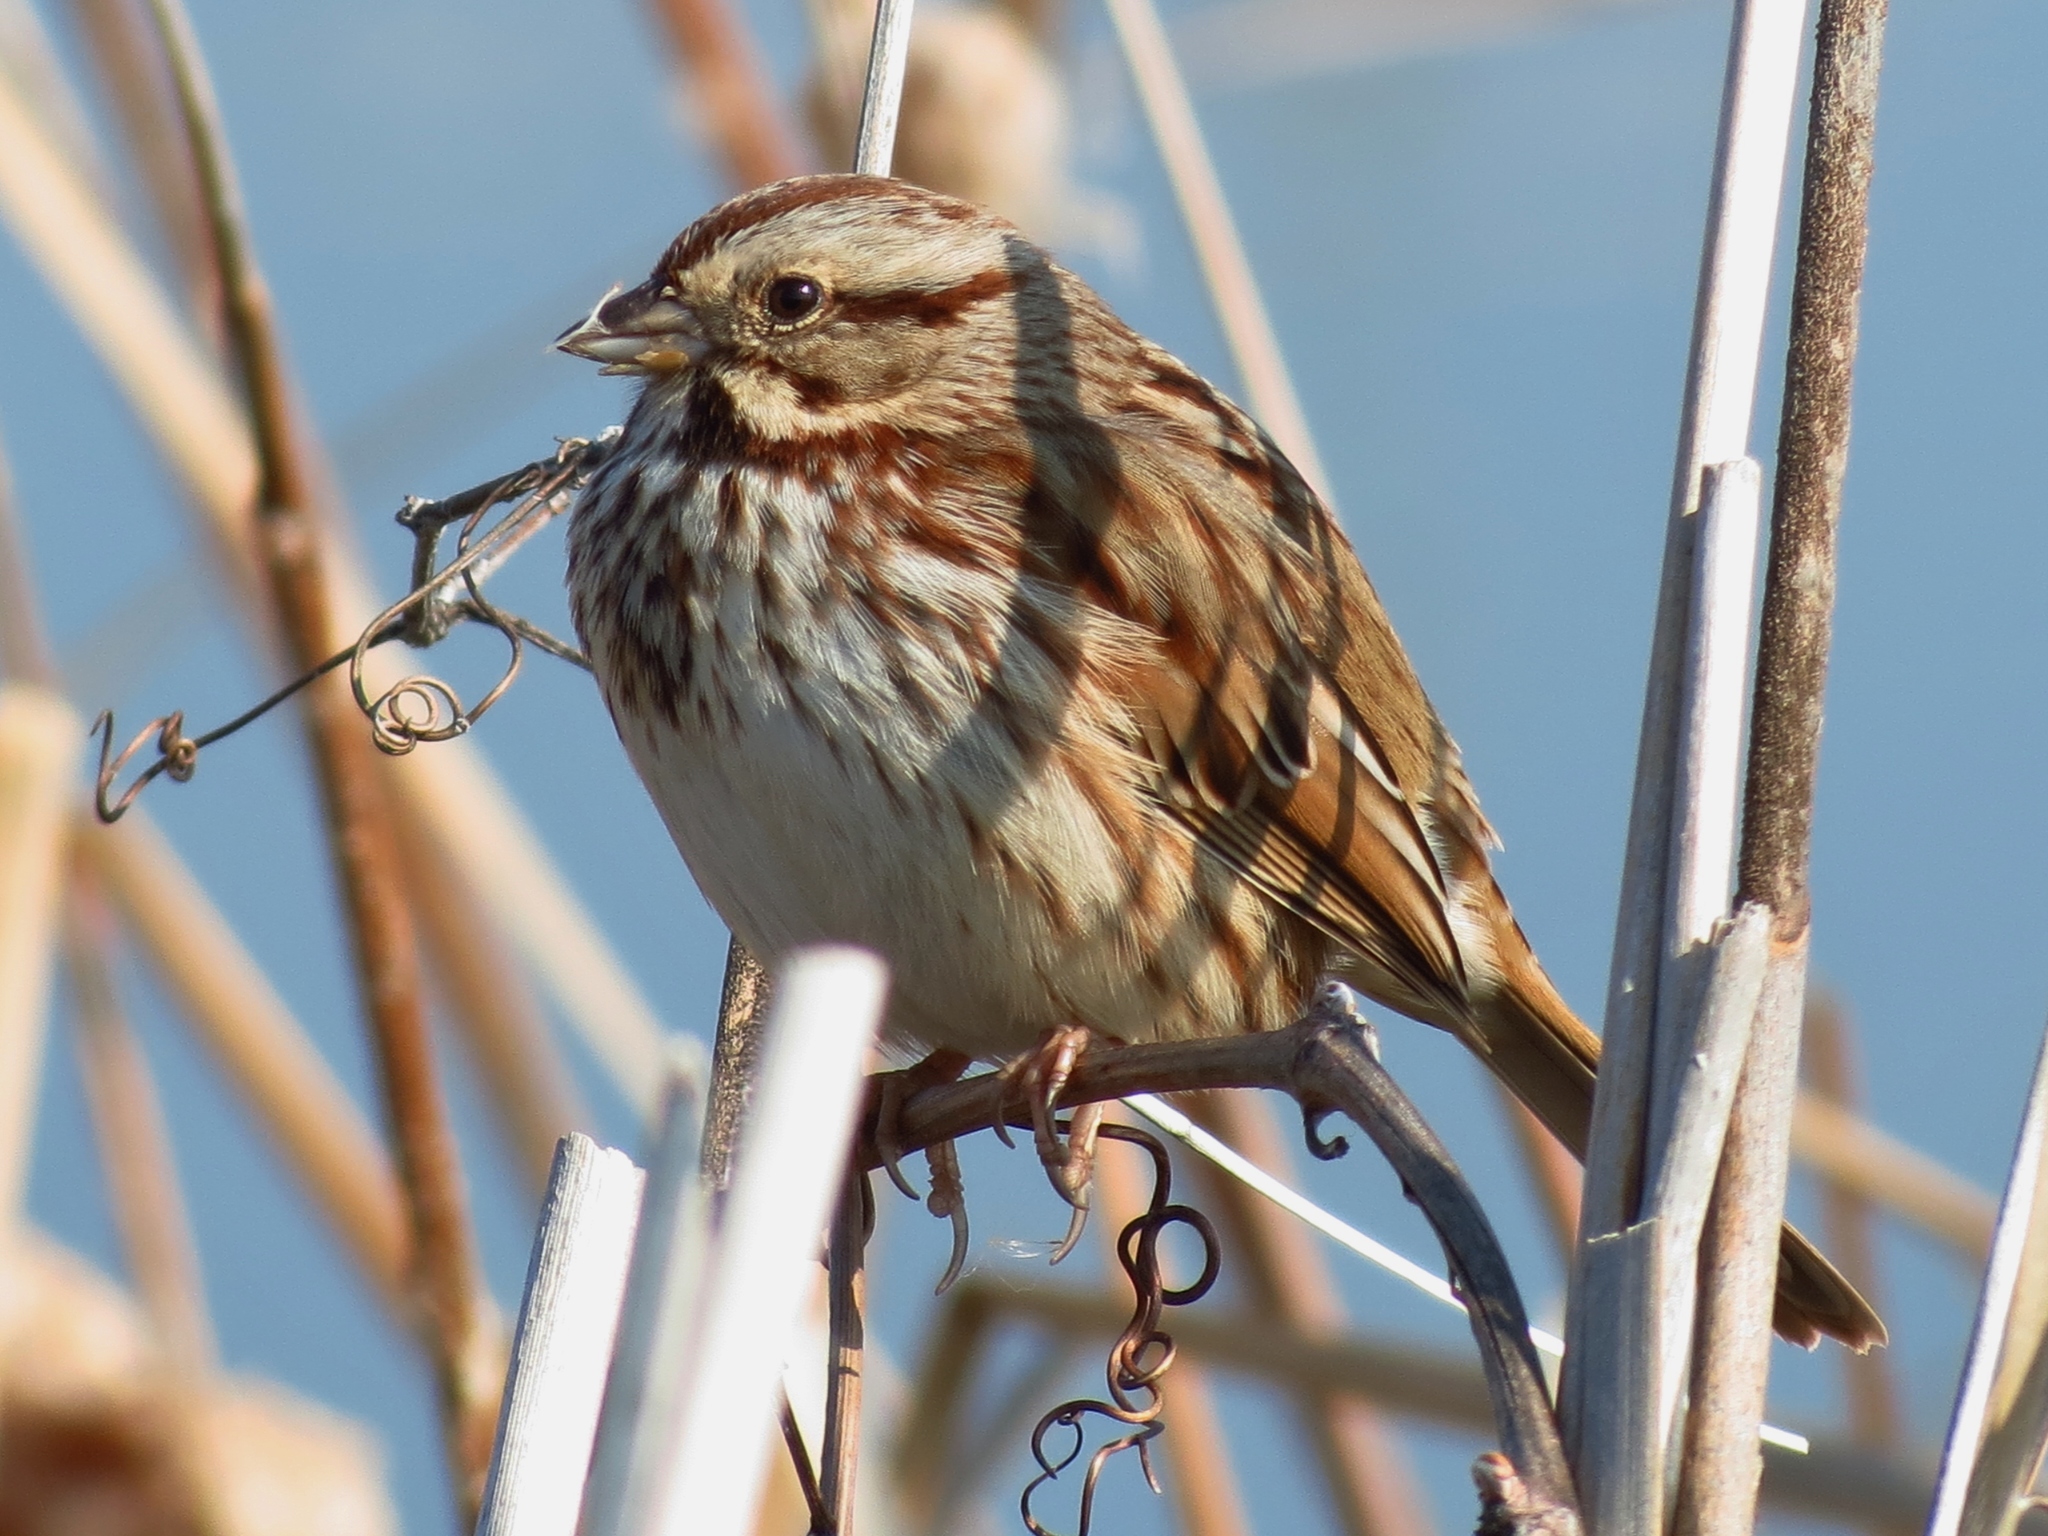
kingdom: Animalia
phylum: Chordata
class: Aves
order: Passeriformes
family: Passerellidae
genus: Melospiza
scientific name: Melospiza melodia
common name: Song sparrow
